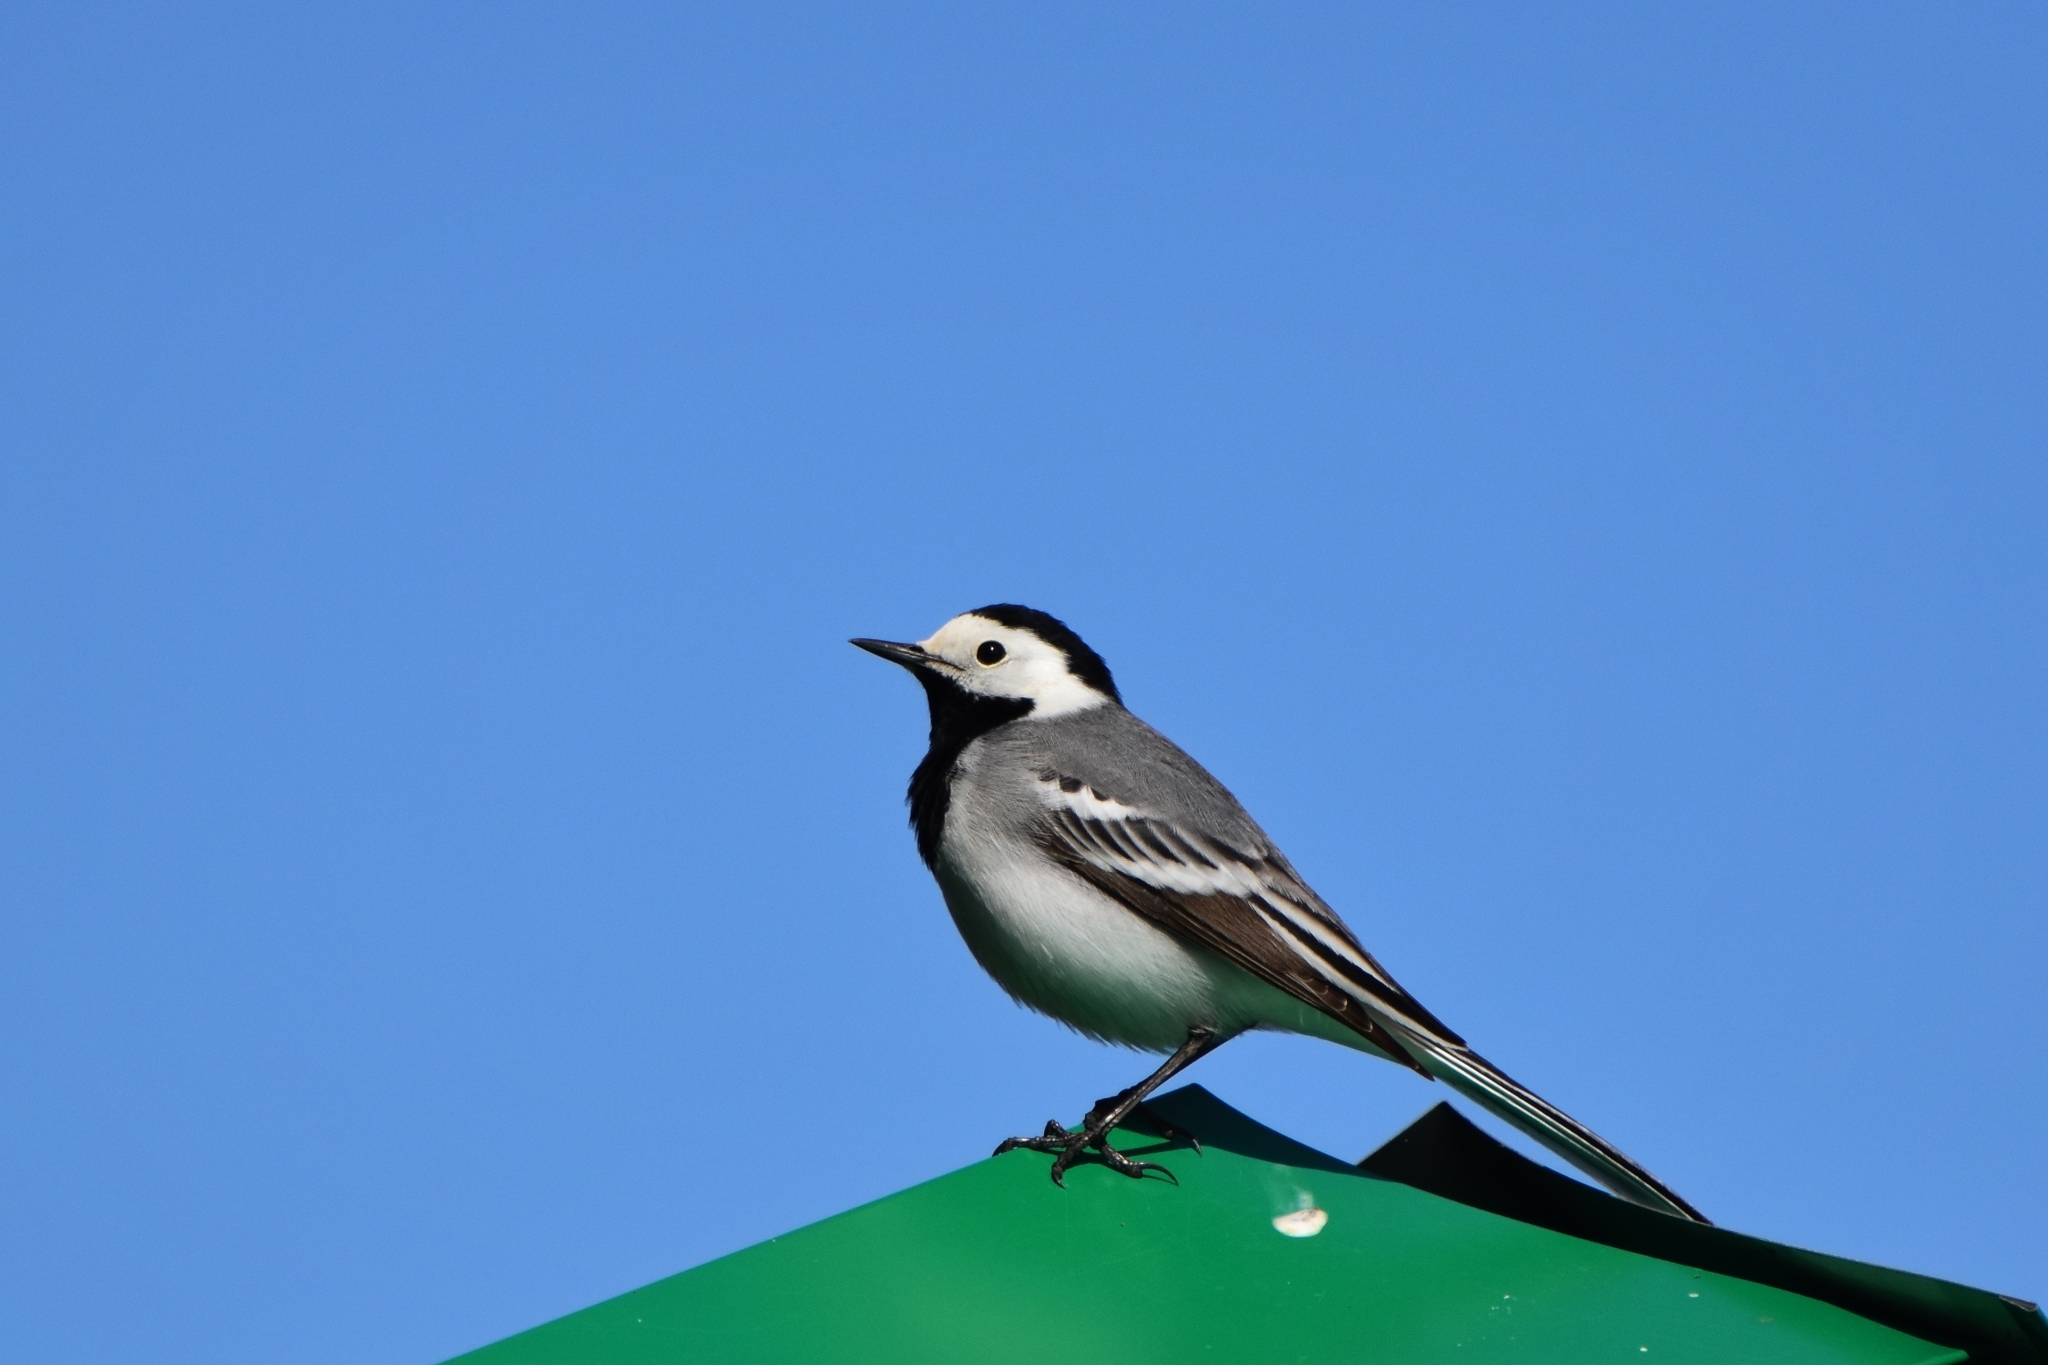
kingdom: Animalia
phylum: Chordata
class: Aves
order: Passeriformes
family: Motacillidae
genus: Motacilla
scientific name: Motacilla alba
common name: White wagtail
